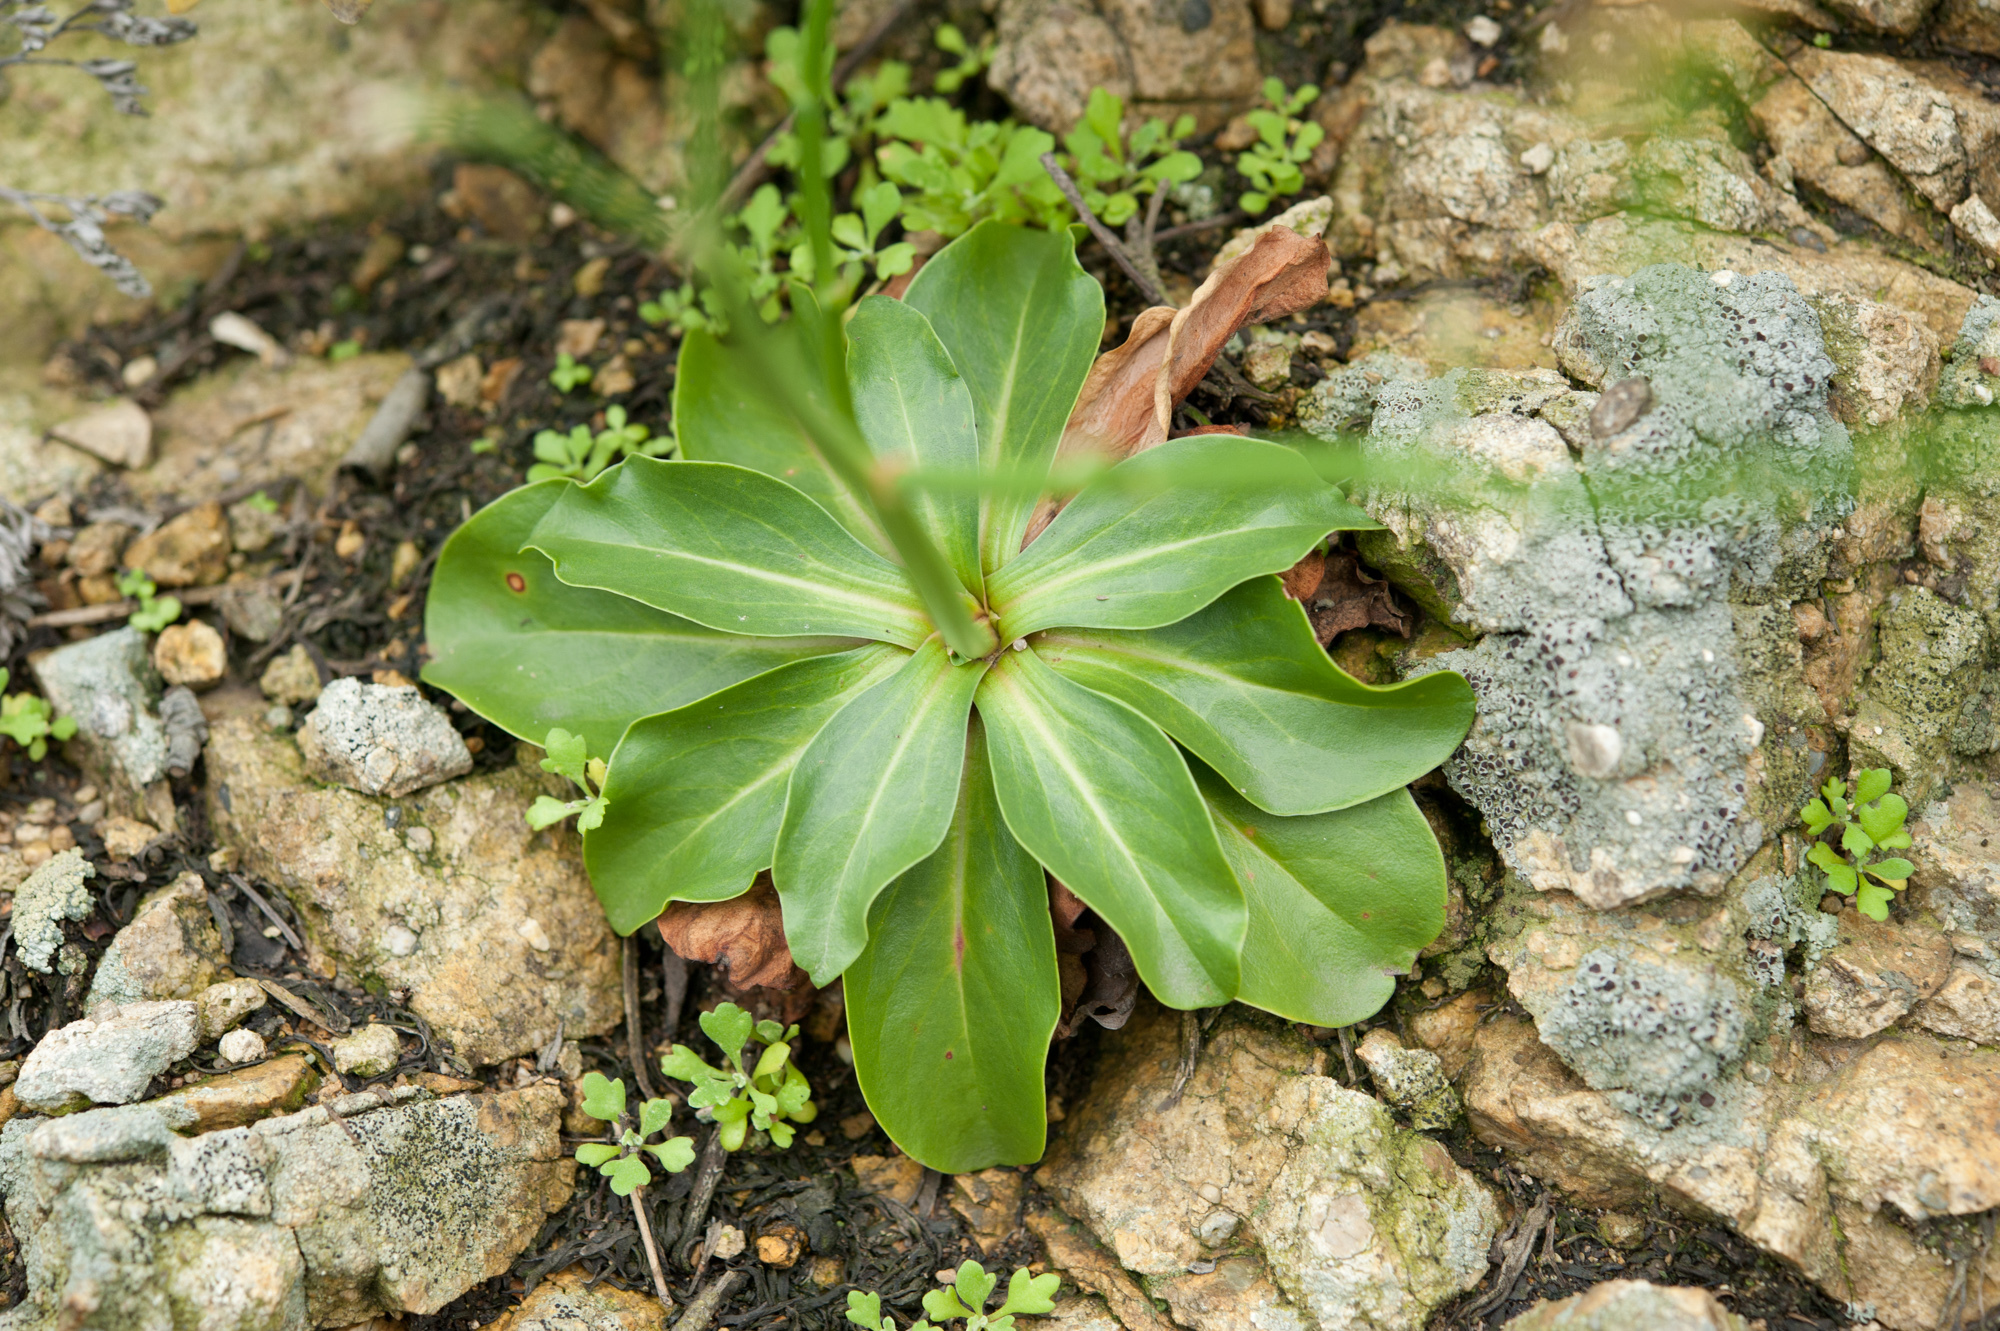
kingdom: Plantae
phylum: Tracheophyta
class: Magnoliopsida
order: Caryophyllales
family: Plumbaginaceae
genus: Limonium
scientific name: Limonium sinense
